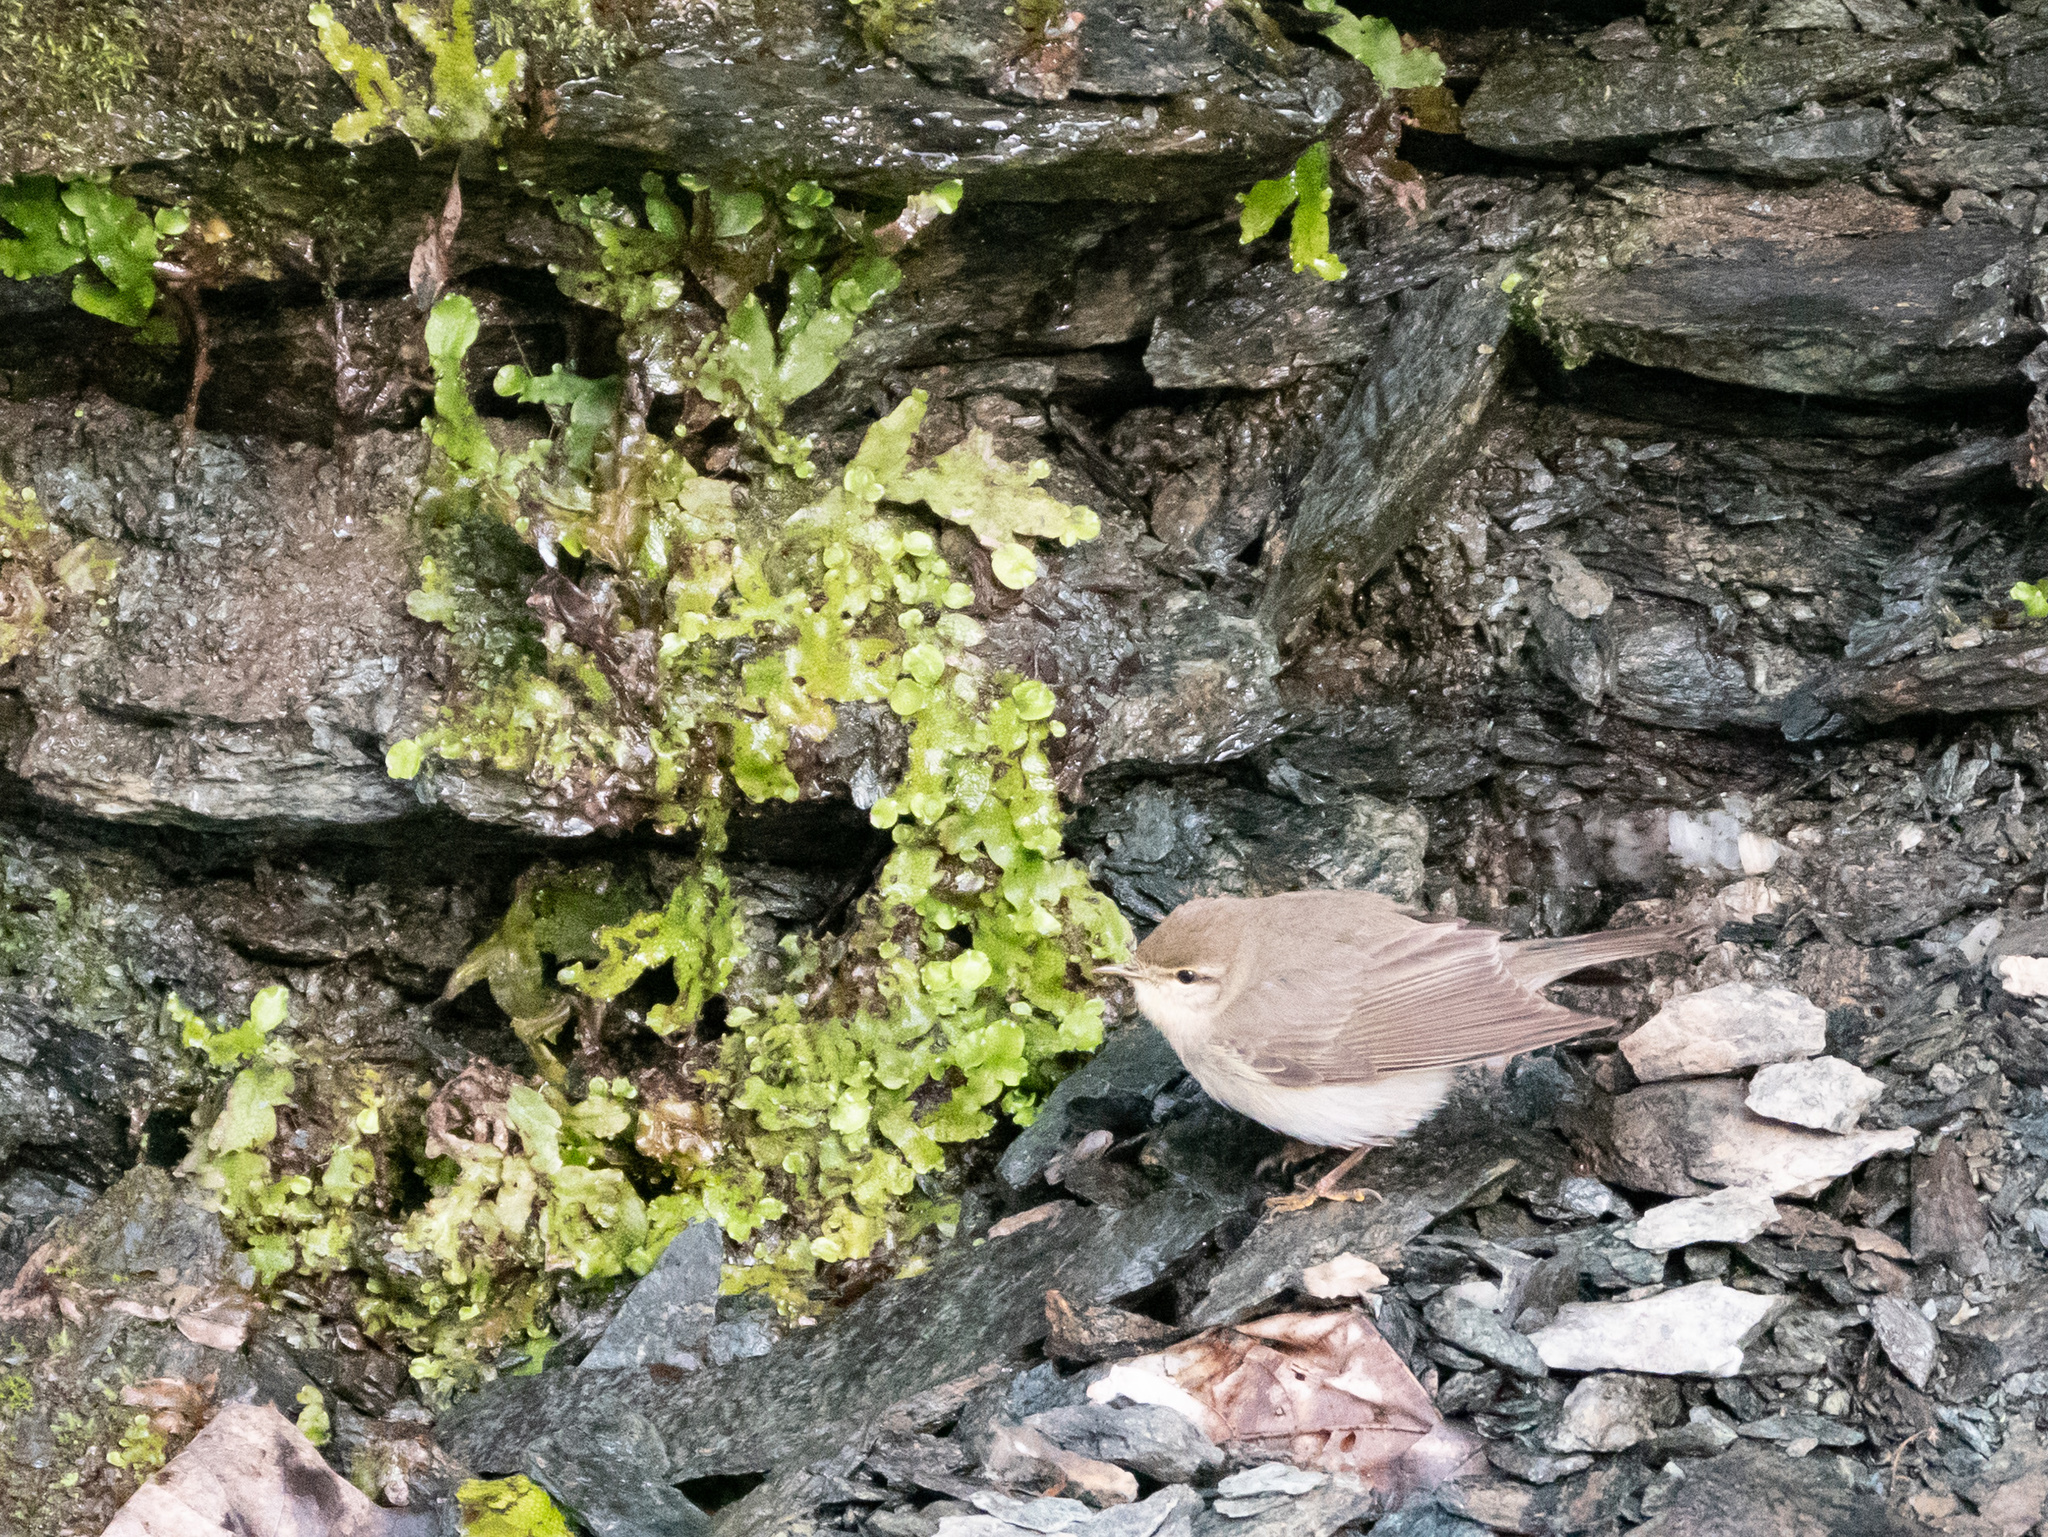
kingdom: Animalia
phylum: Chordata
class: Aves
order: Passeriformes
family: Phylloscopidae
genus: Phylloscopus
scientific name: Phylloscopus trochilus
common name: Willow warbler
